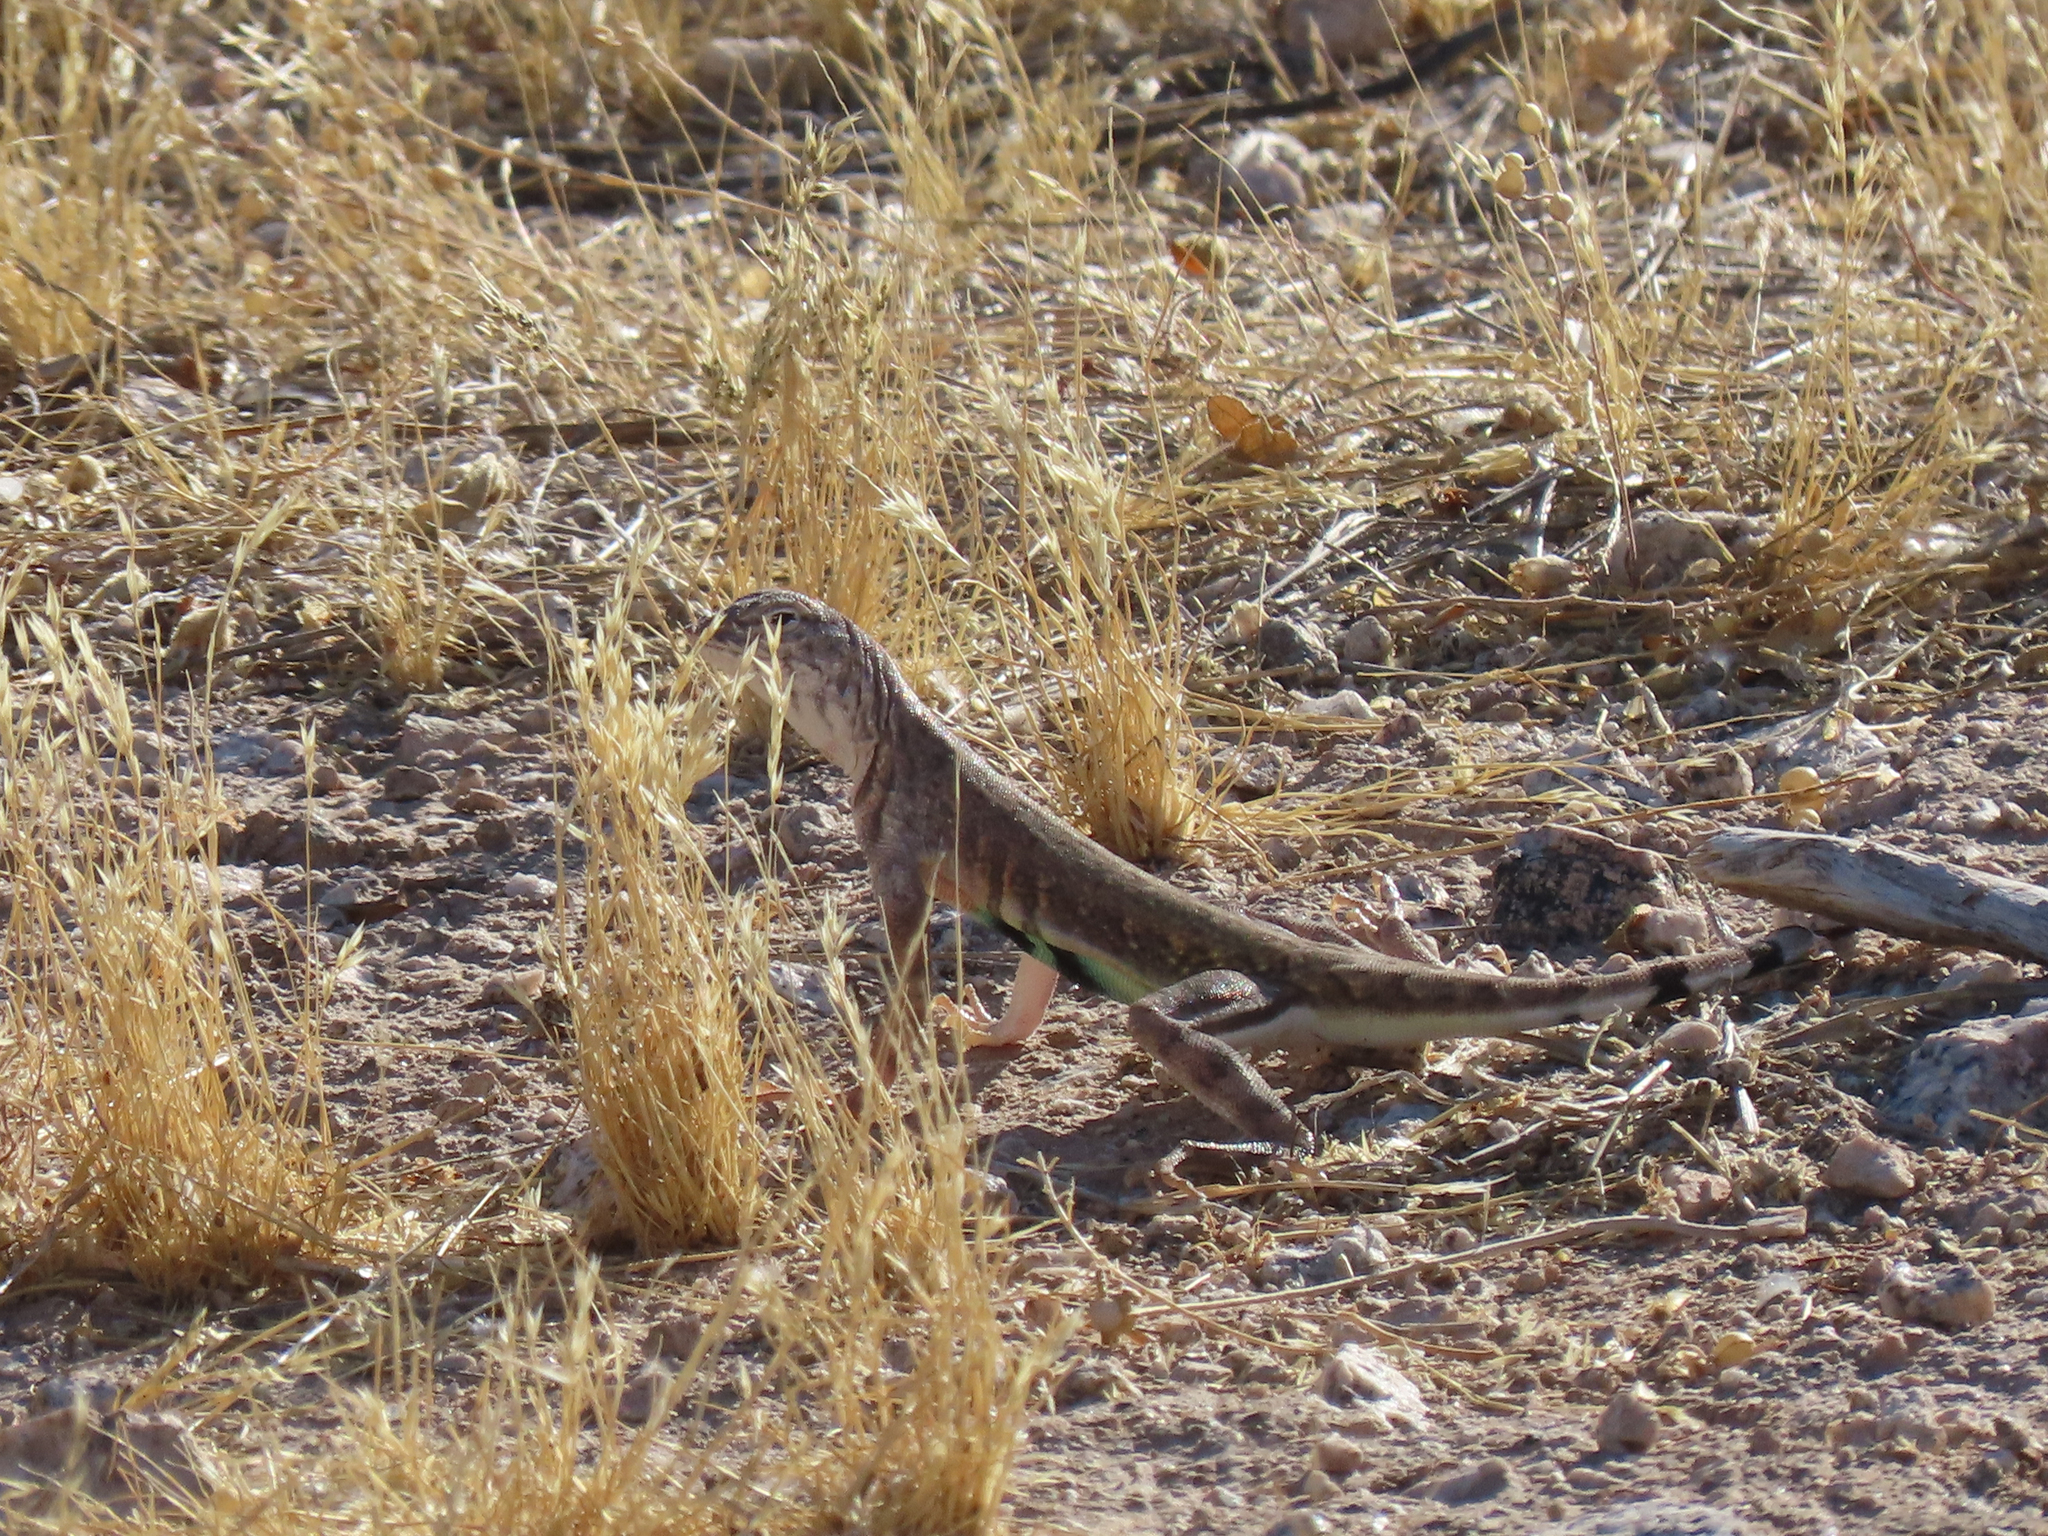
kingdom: Animalia
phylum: Chordata
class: Squamata
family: Phrynosomatidae
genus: Callisaurus
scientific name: Callisaurus draconoides
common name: Zebra-tailed lizard
